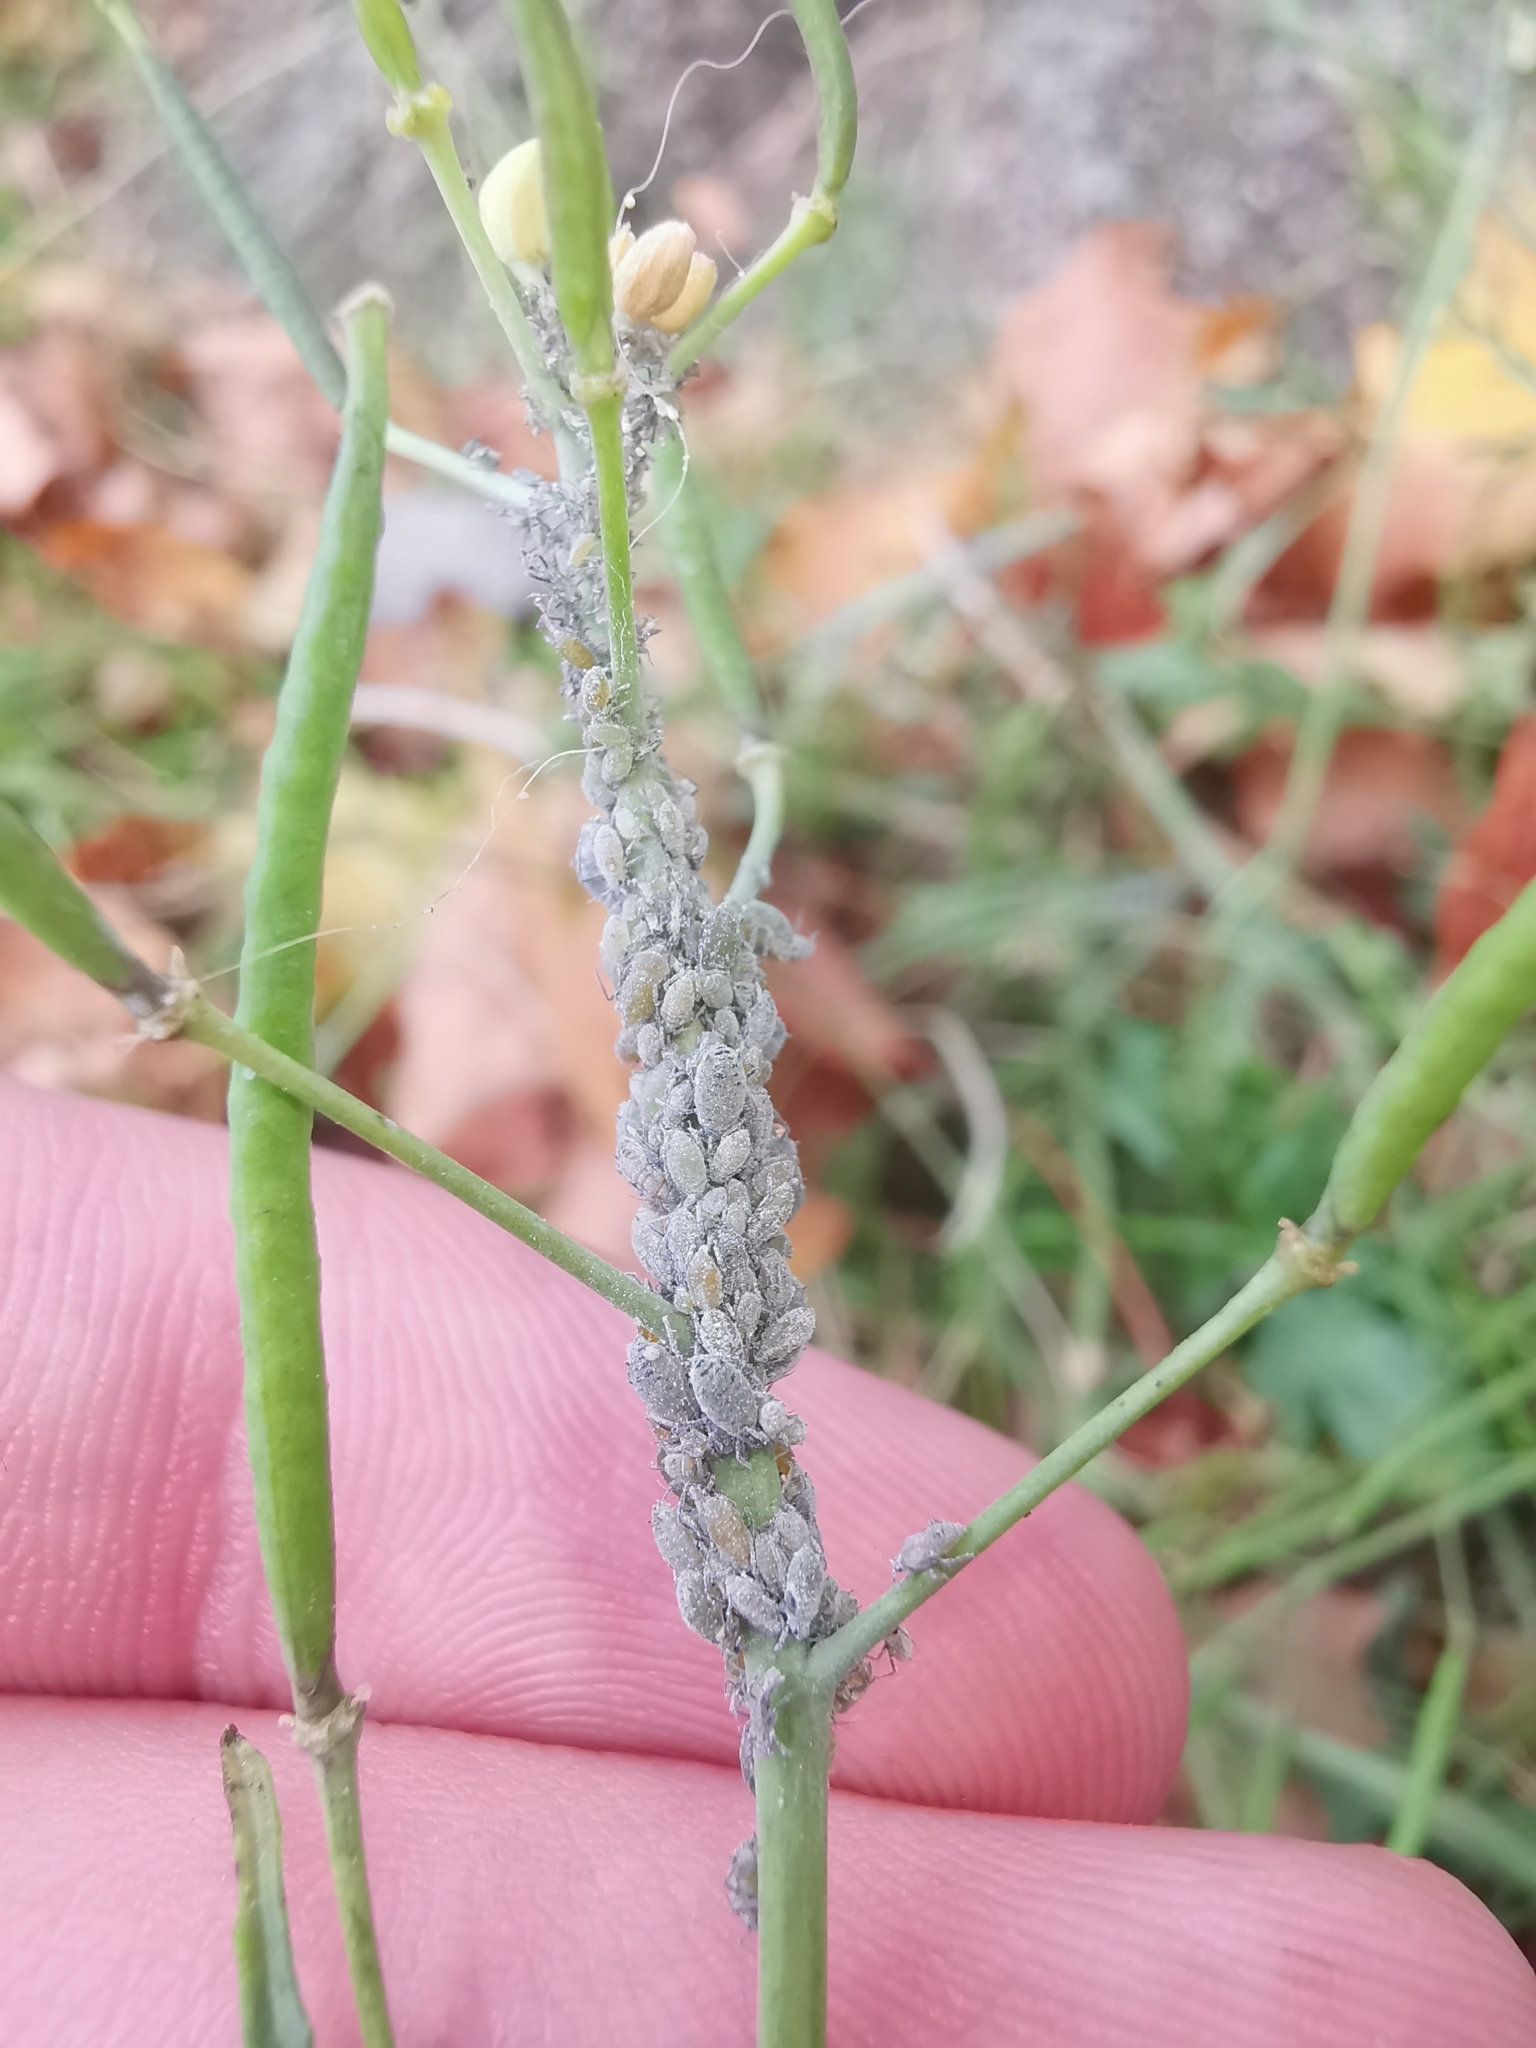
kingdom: Animalia
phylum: Arthropoda
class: Insecta
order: Hemiptera
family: Aphididae
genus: Brevicoryne
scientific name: Brevicoryne brassicae
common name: Cabbage aphid
